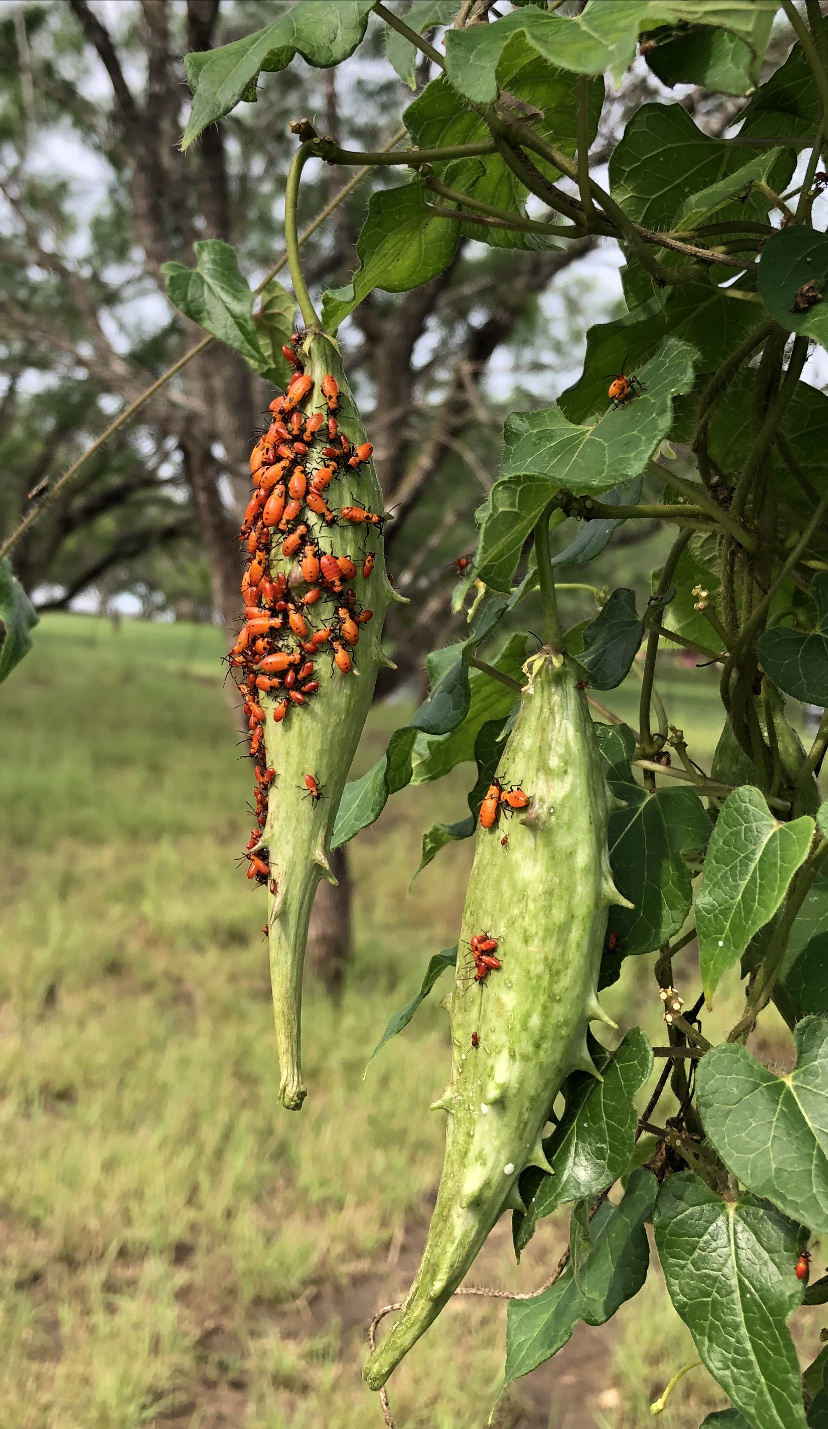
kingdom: Animalia
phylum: Arthropoda
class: Insecta
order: Hemiptera
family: Lygaeidae
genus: Oncopeltus
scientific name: Oncopeltus fasciatus
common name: Large milkweed bug
